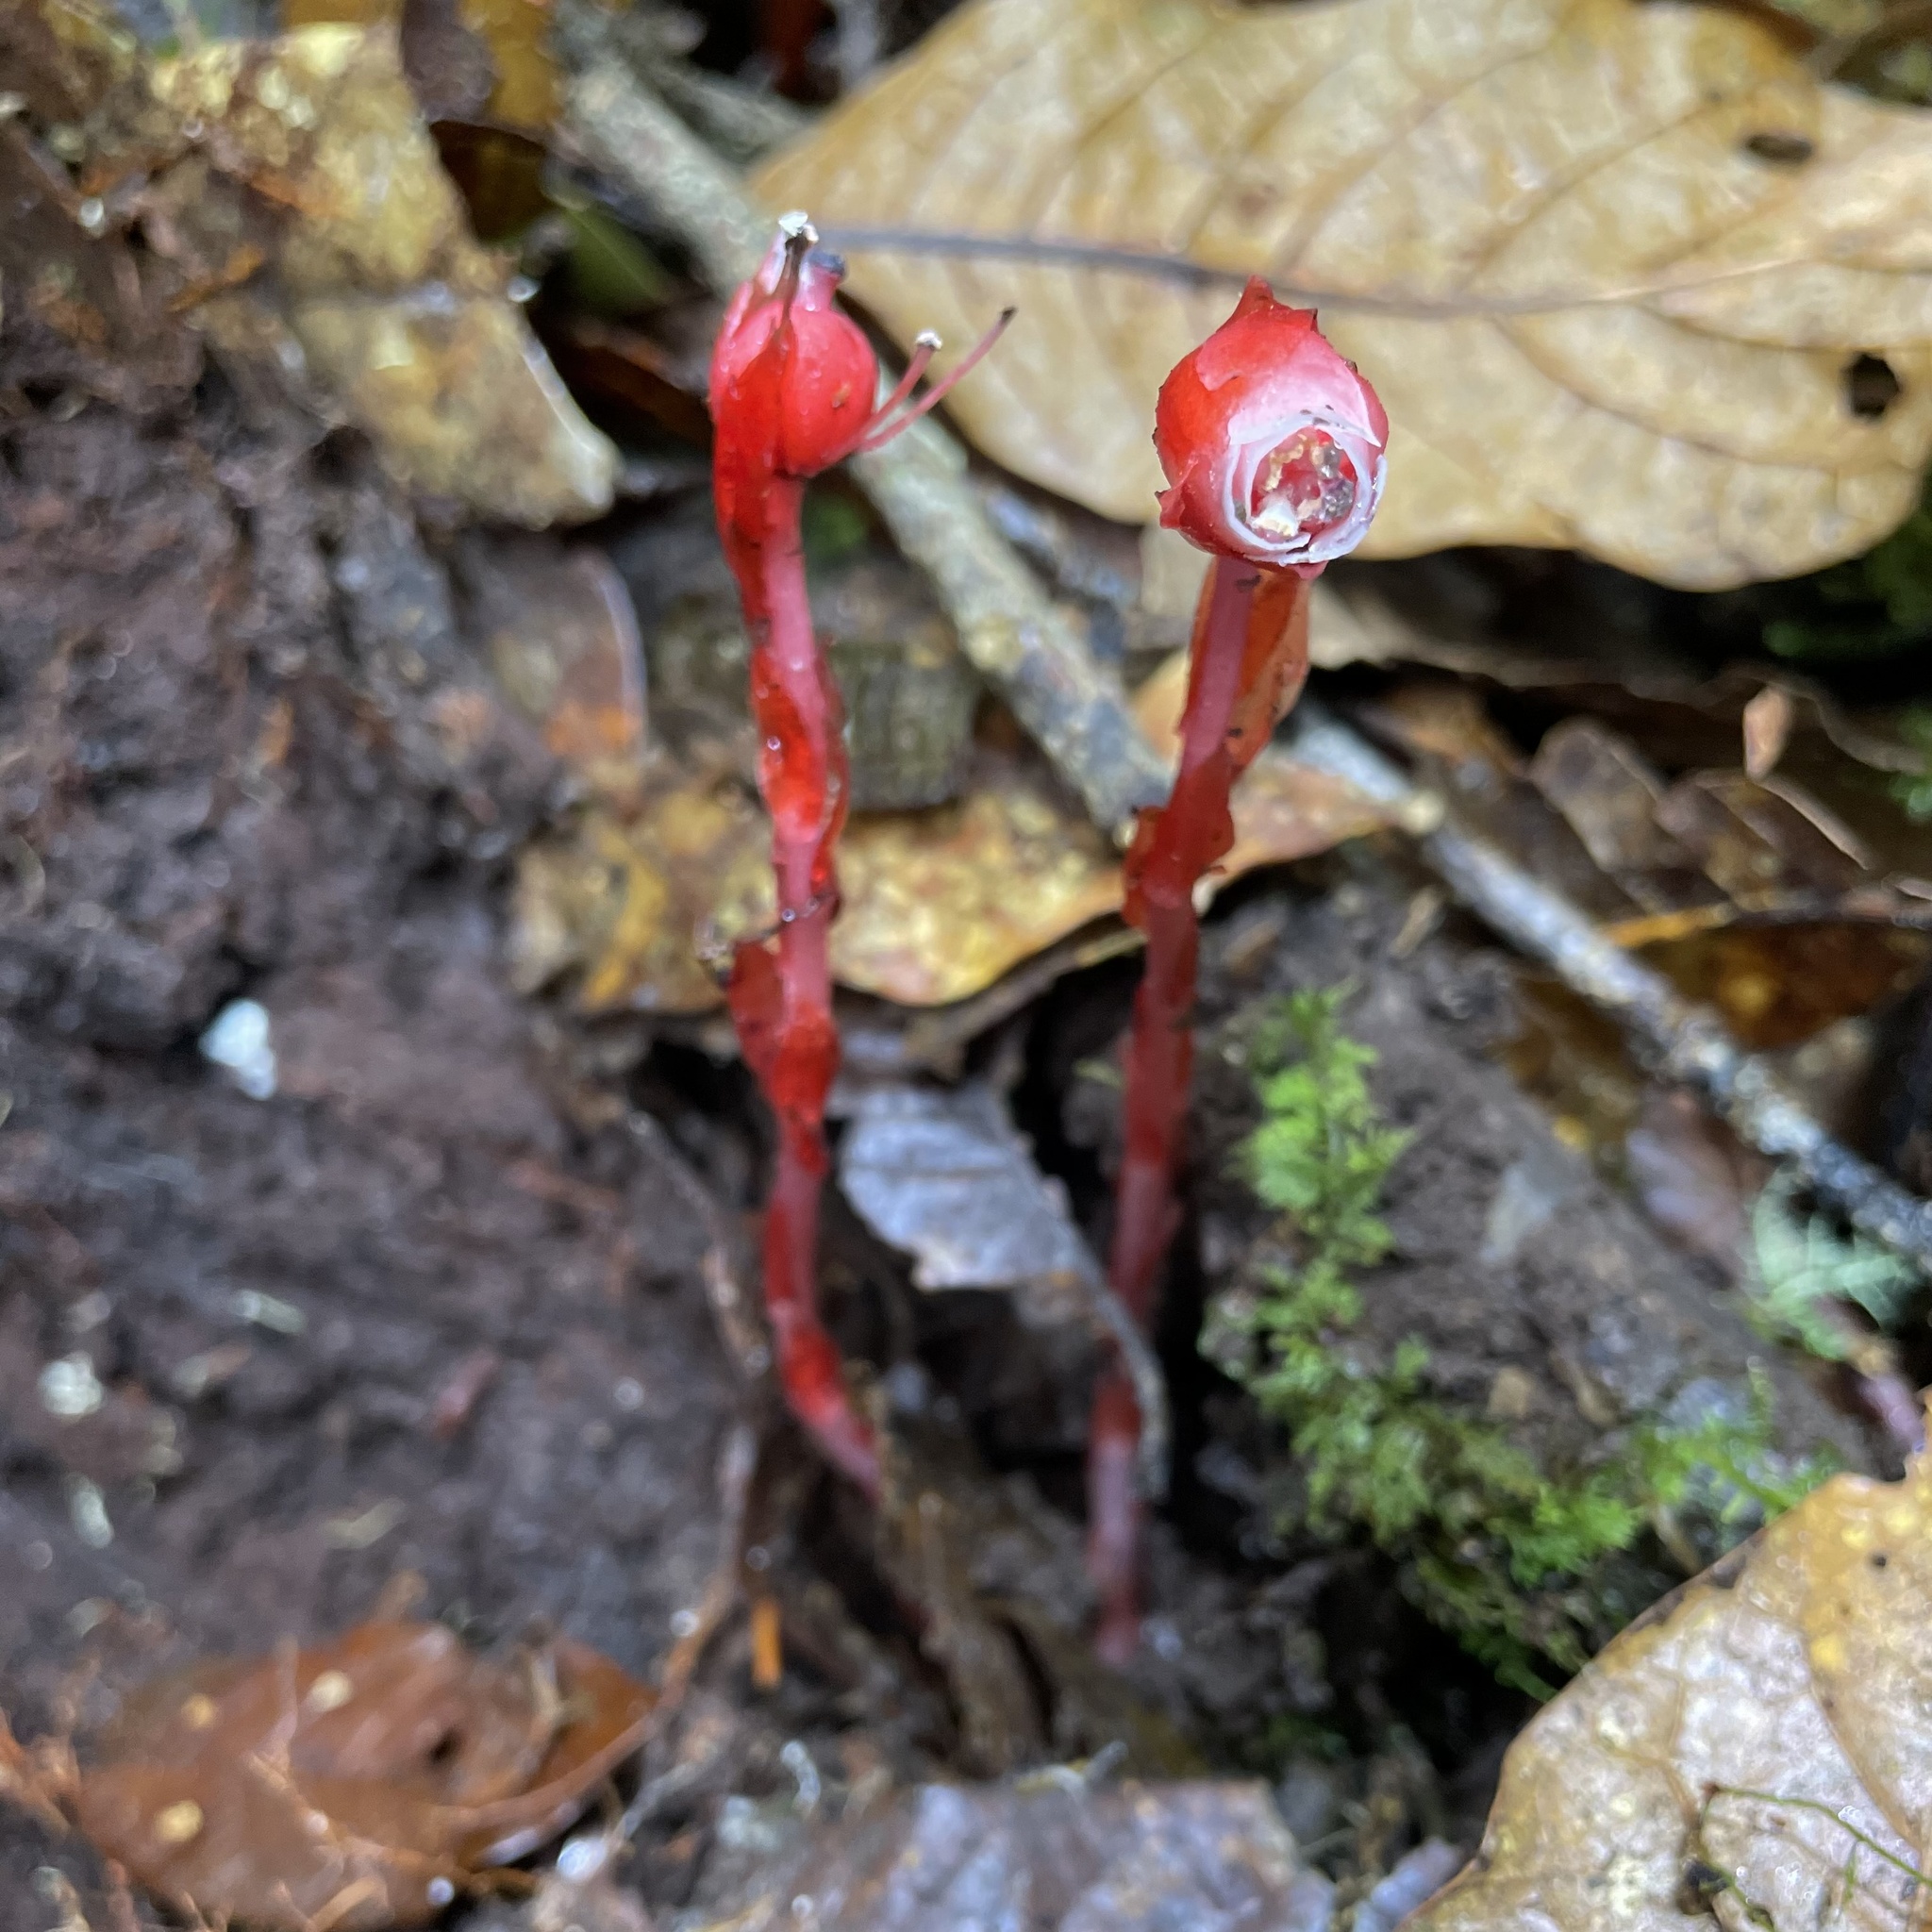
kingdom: Plantae
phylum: Tracheophyta
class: Magnoliopsida
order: Ericales
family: Ericaceae
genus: Monotropa
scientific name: Monotropa coccinea
